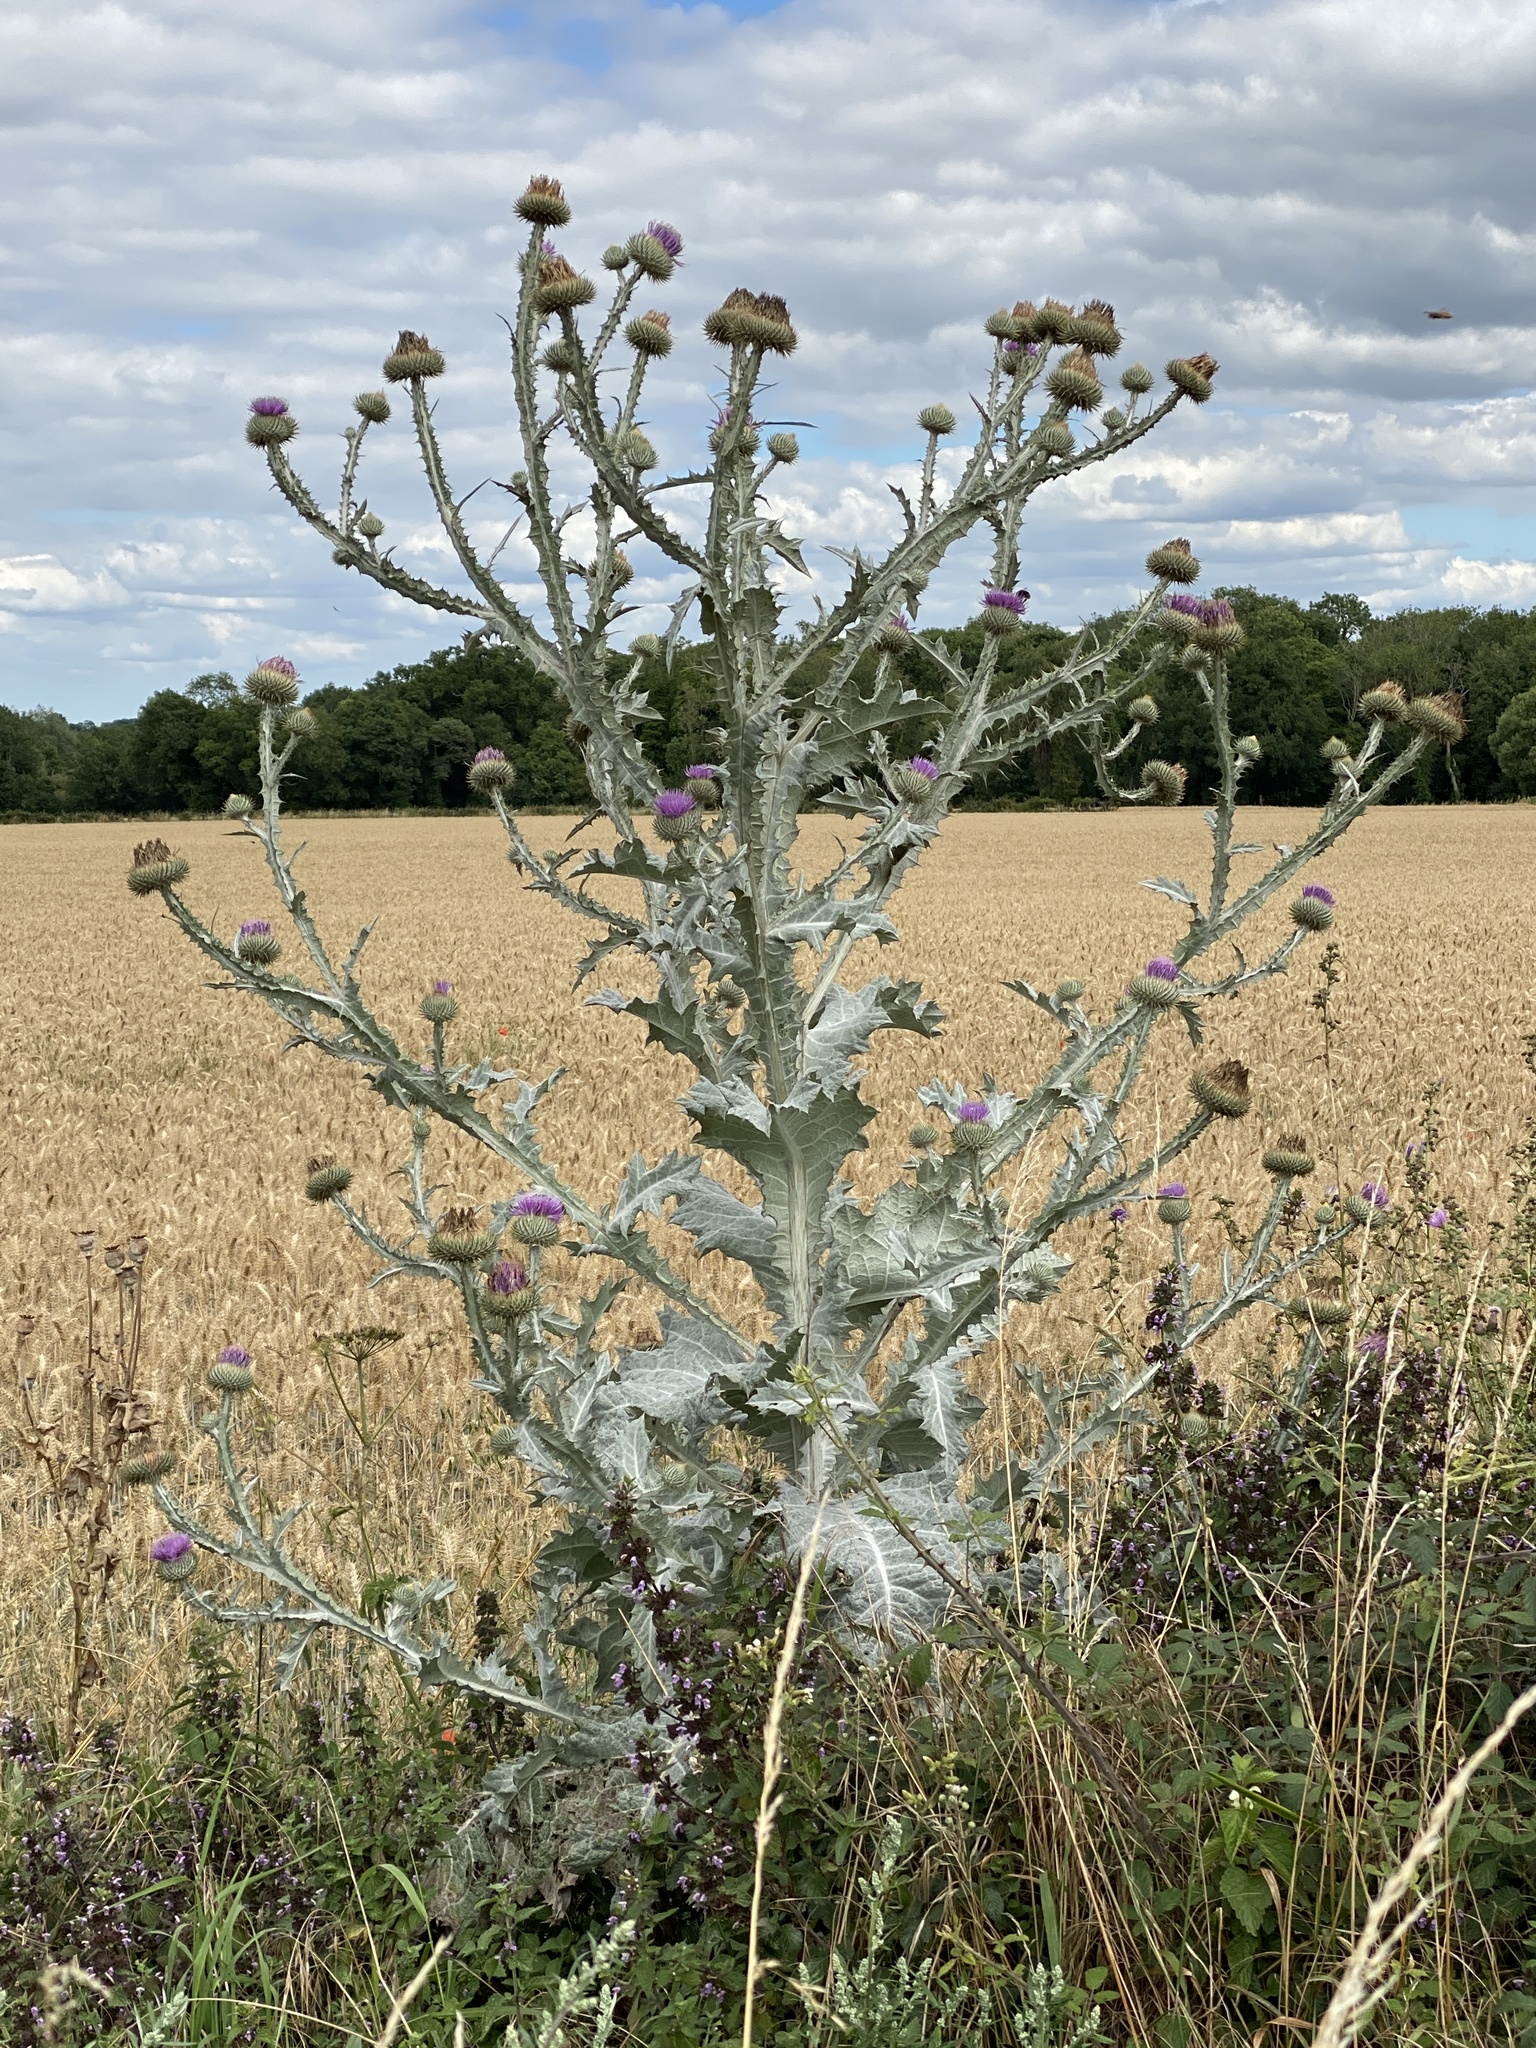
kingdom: Plantae
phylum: Tracheophyta
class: Magnoliopsida
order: Asterales
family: Asteraceae
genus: Onopordum
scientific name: Onopordum acanthium
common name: Scotch thistle
